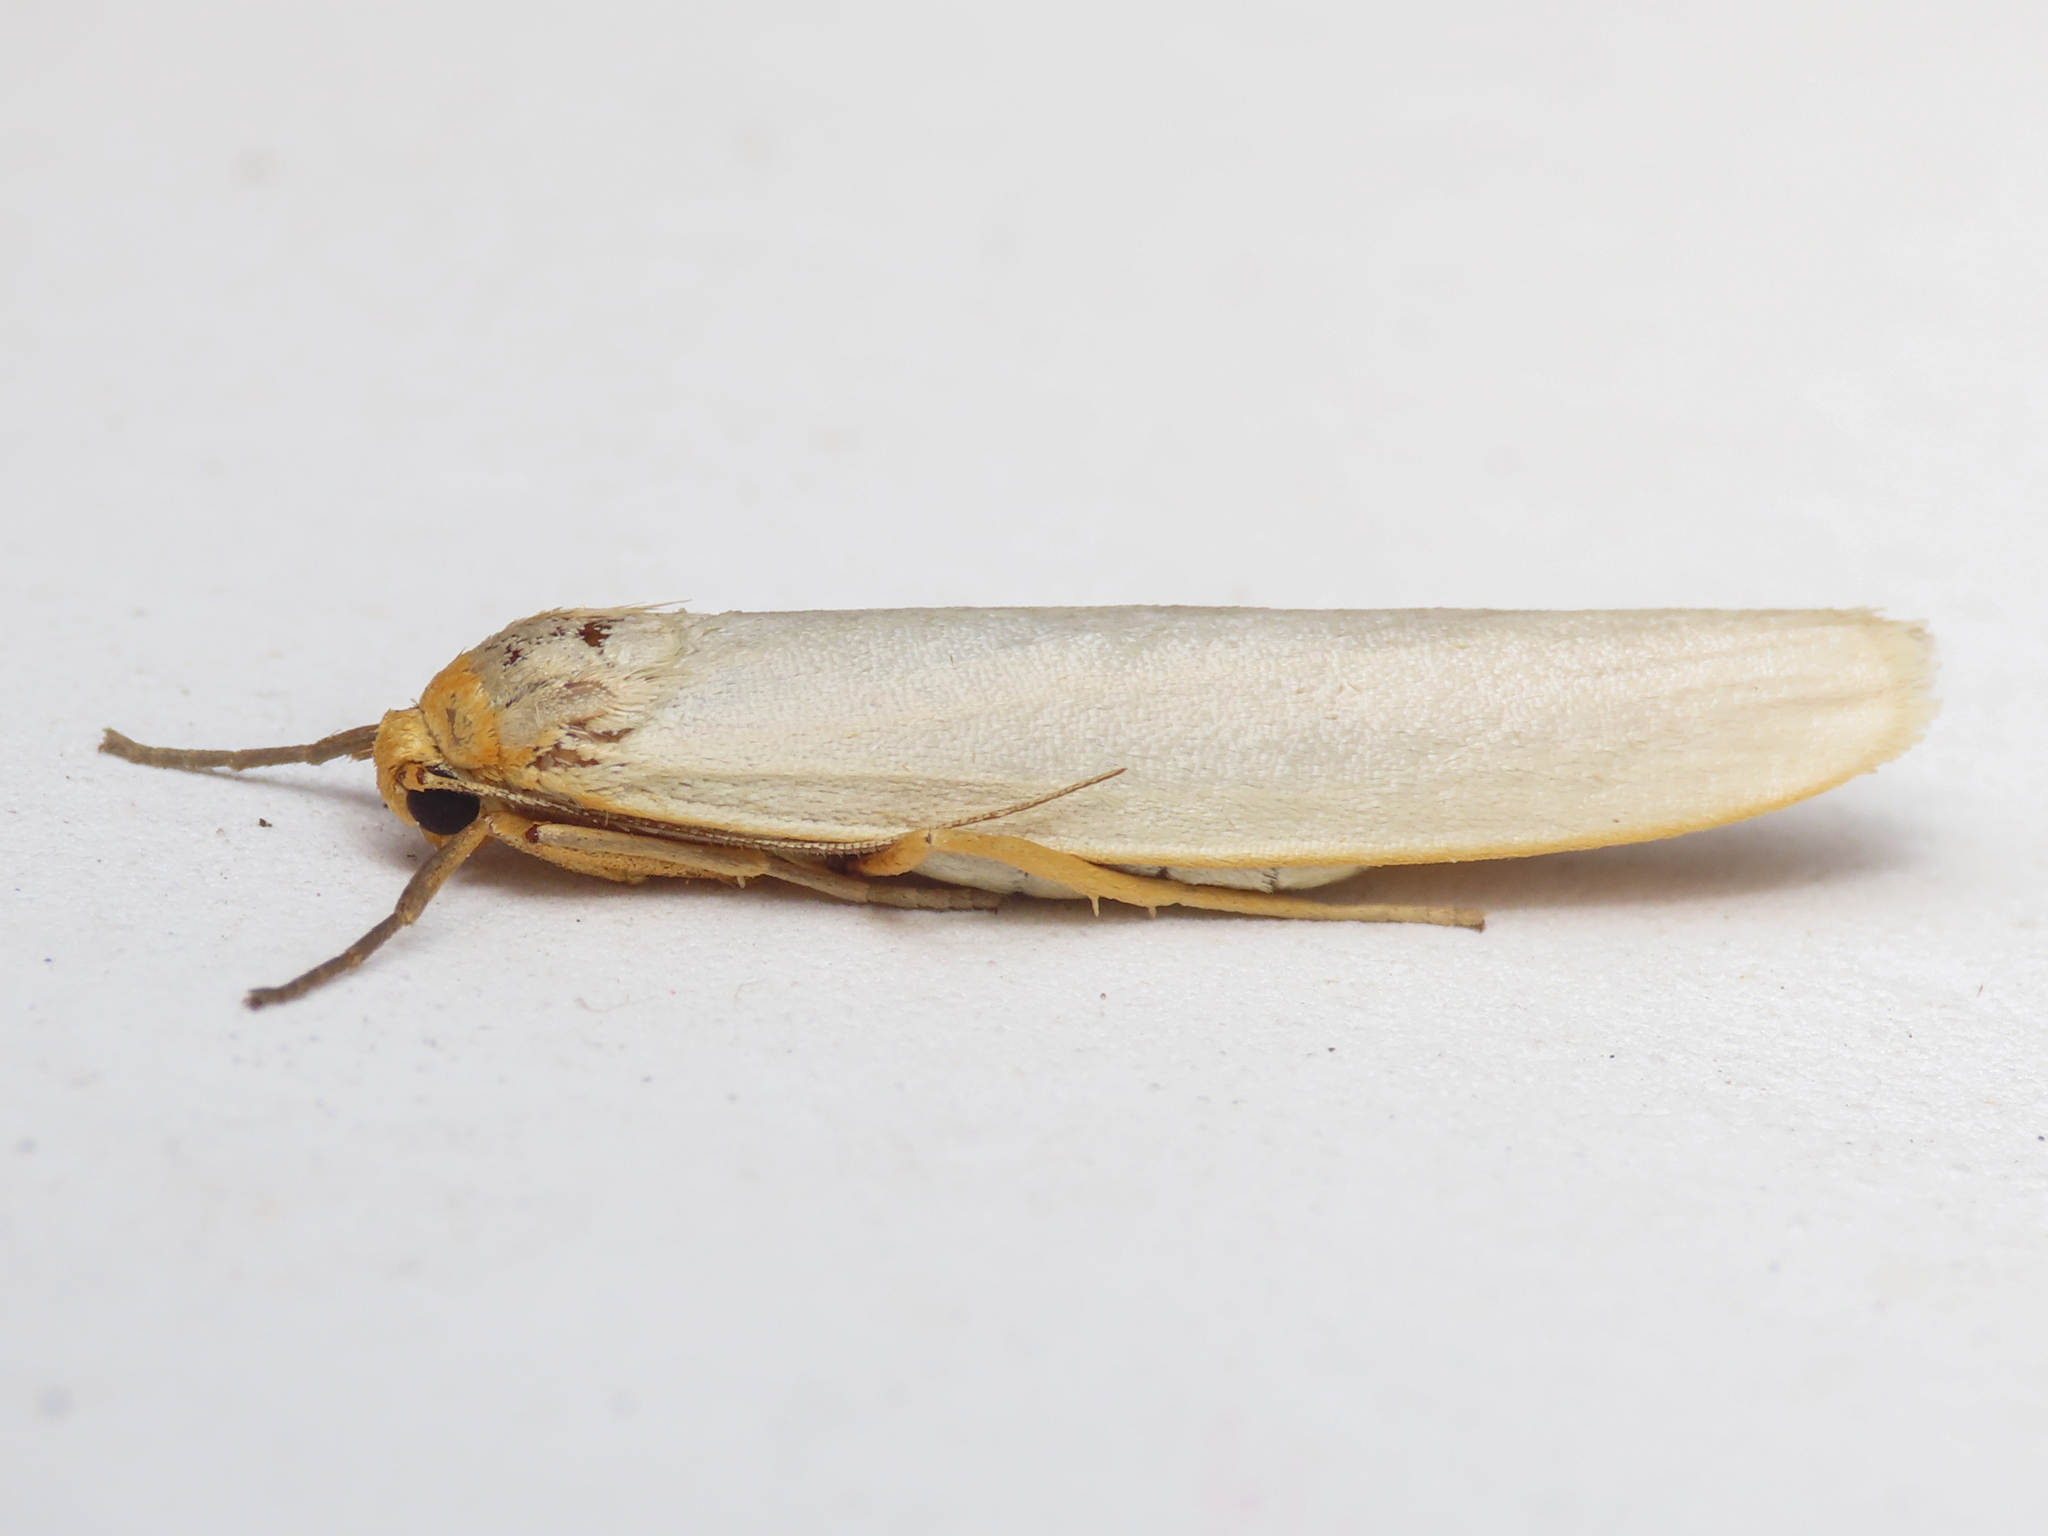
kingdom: Animalia
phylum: Arthropoda
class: Insecta
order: Lepidoptera
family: Erebidae
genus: Eilema
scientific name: Eilema caniola
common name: Hoary footman
